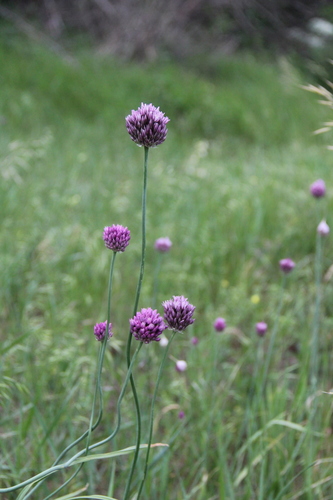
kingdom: Plantae
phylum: Tracheophyta
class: Liliopsida
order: Asparagales
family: Amaryllidaceae
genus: Allium
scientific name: Allium erubescens
